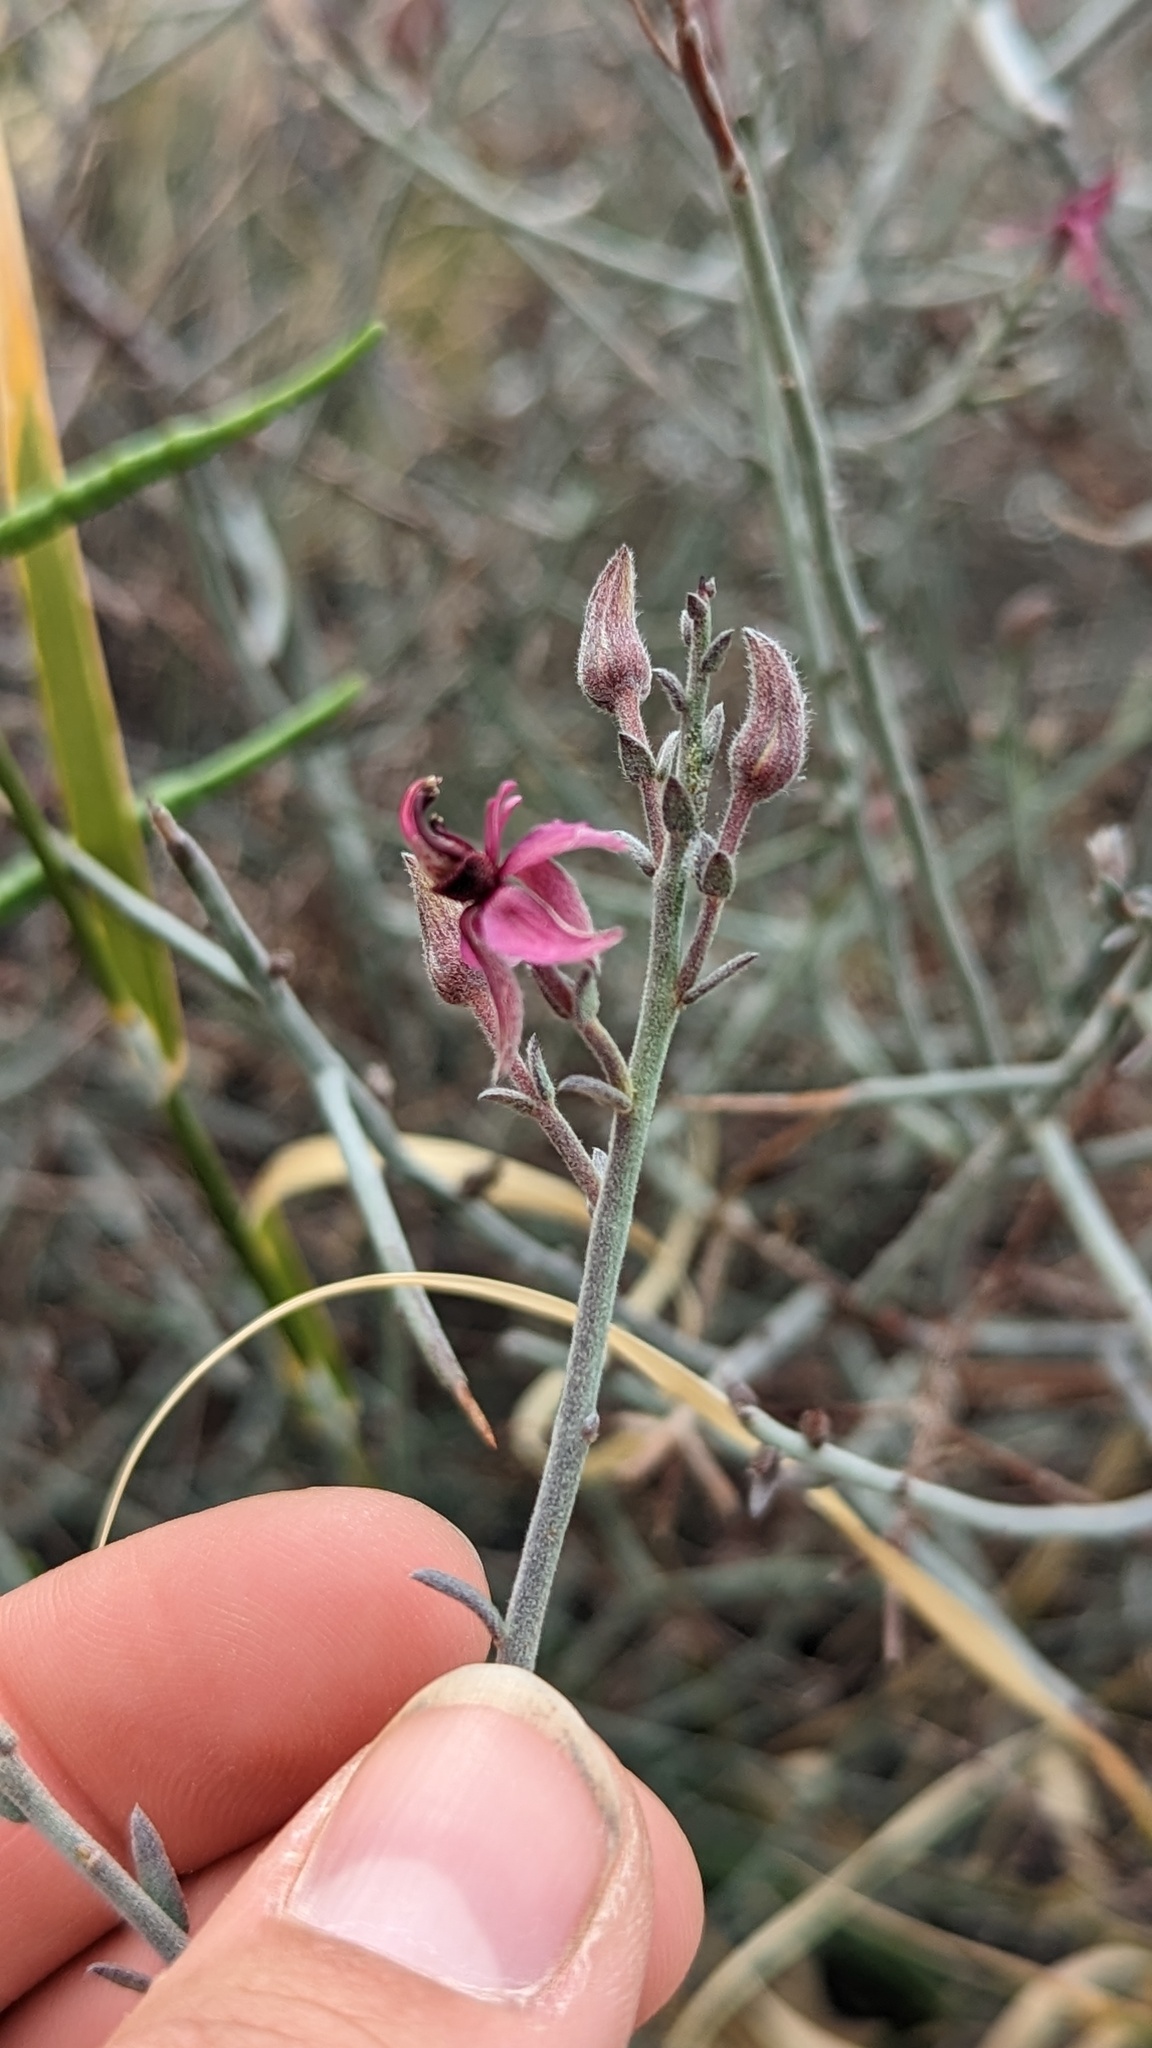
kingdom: Plantae
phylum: Tracheophyta
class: Magnoliopsida
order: Zygophyllales
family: Krameriaceae
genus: Krameria
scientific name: Krameria bicolor
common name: White ratany
